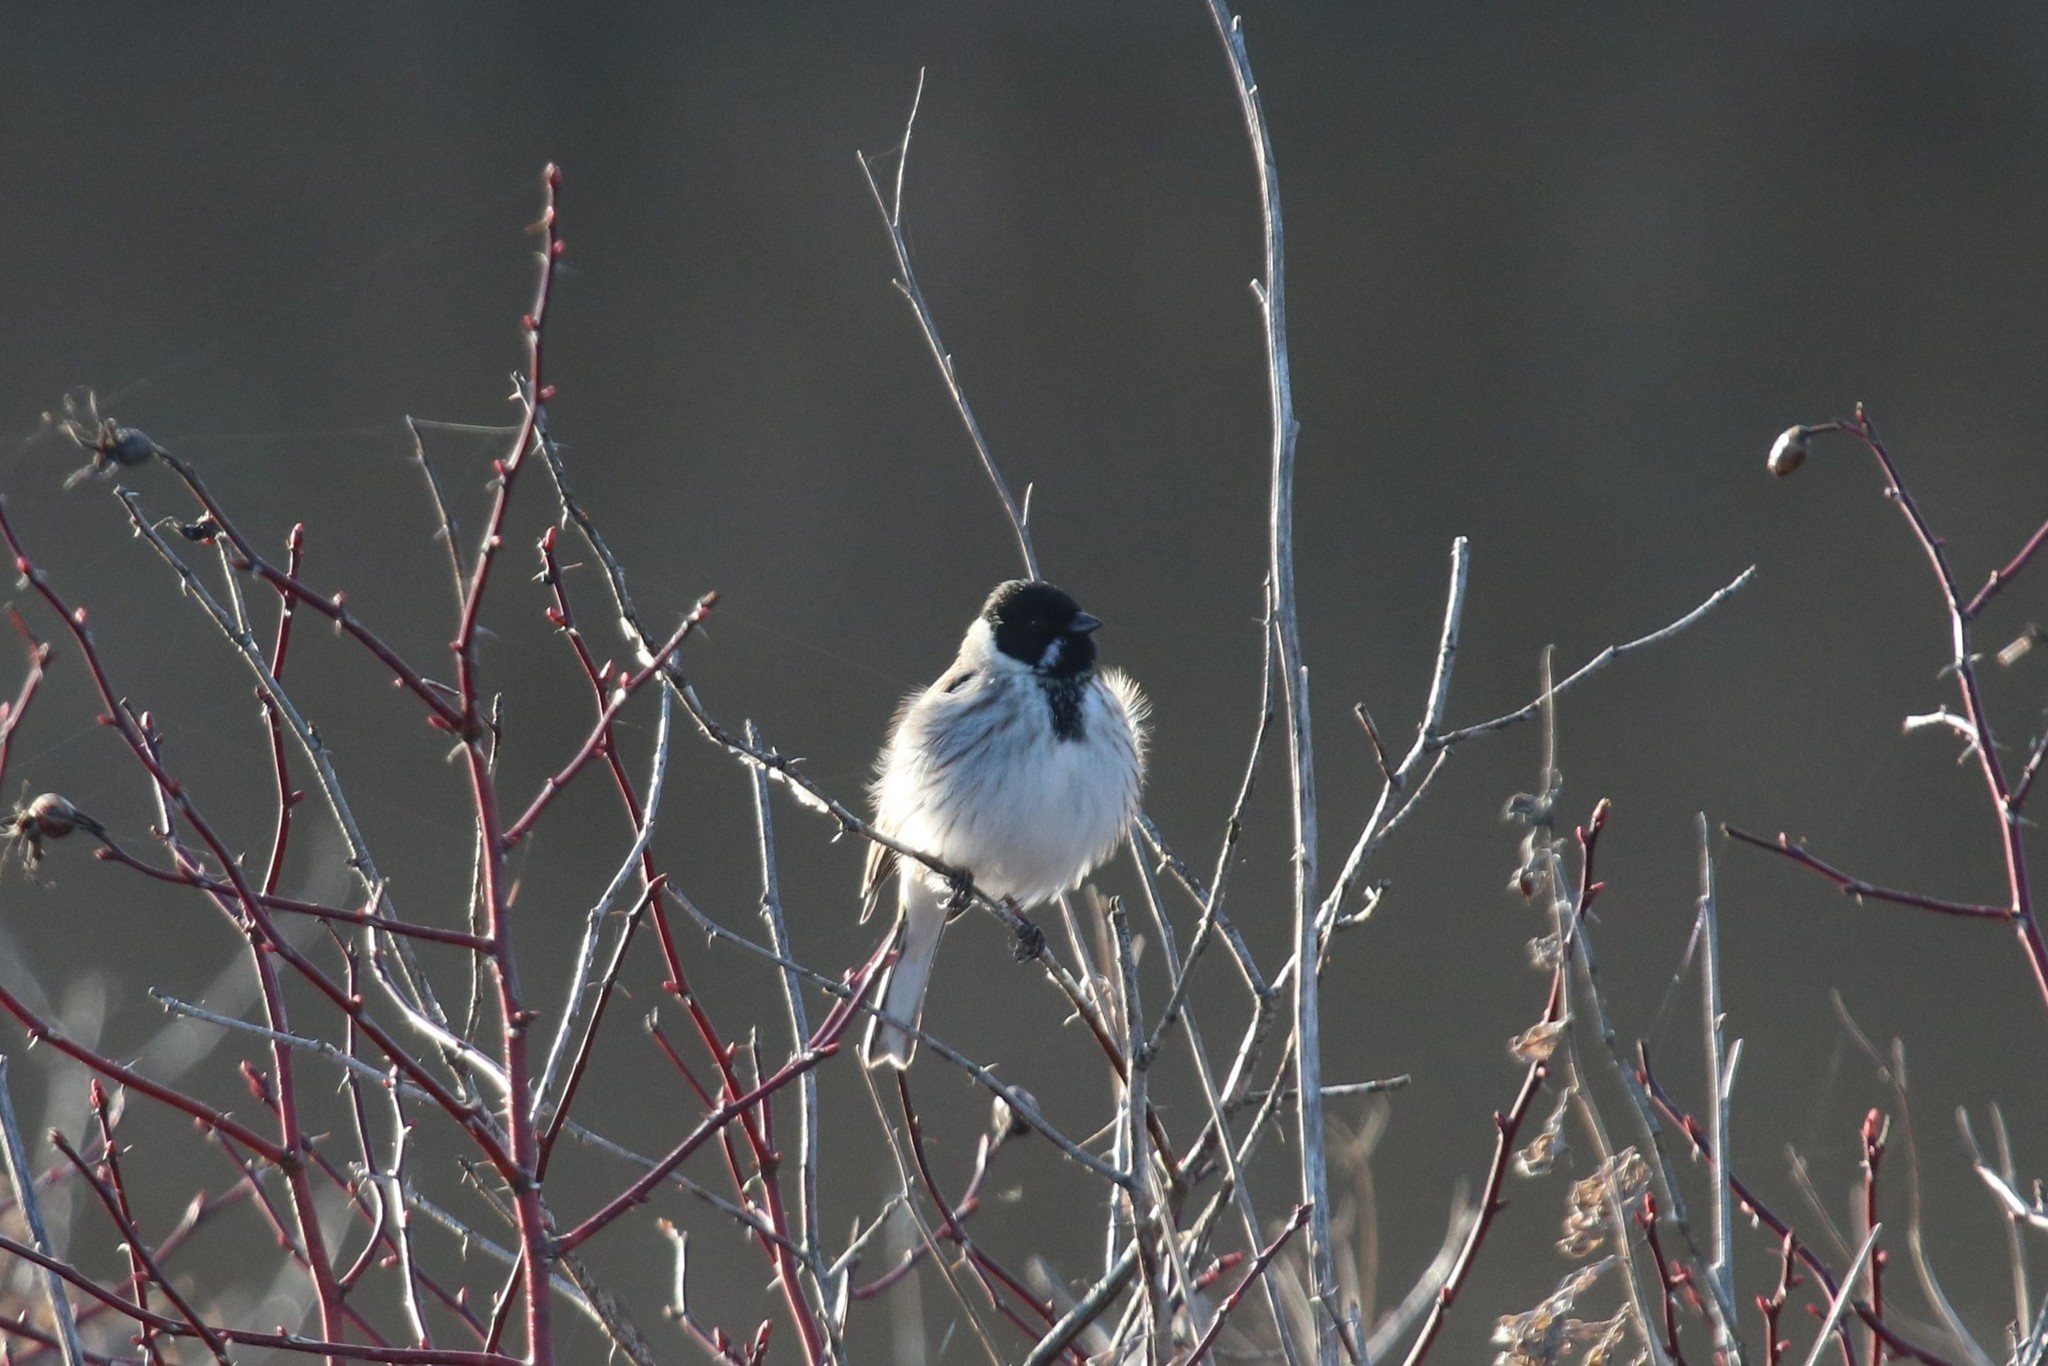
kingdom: Animalia
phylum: Chordata
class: Aves
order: Passeriformes
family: Emberizidae
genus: Emberiza
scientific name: Emberiza schoeniclus
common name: Reed bunting
